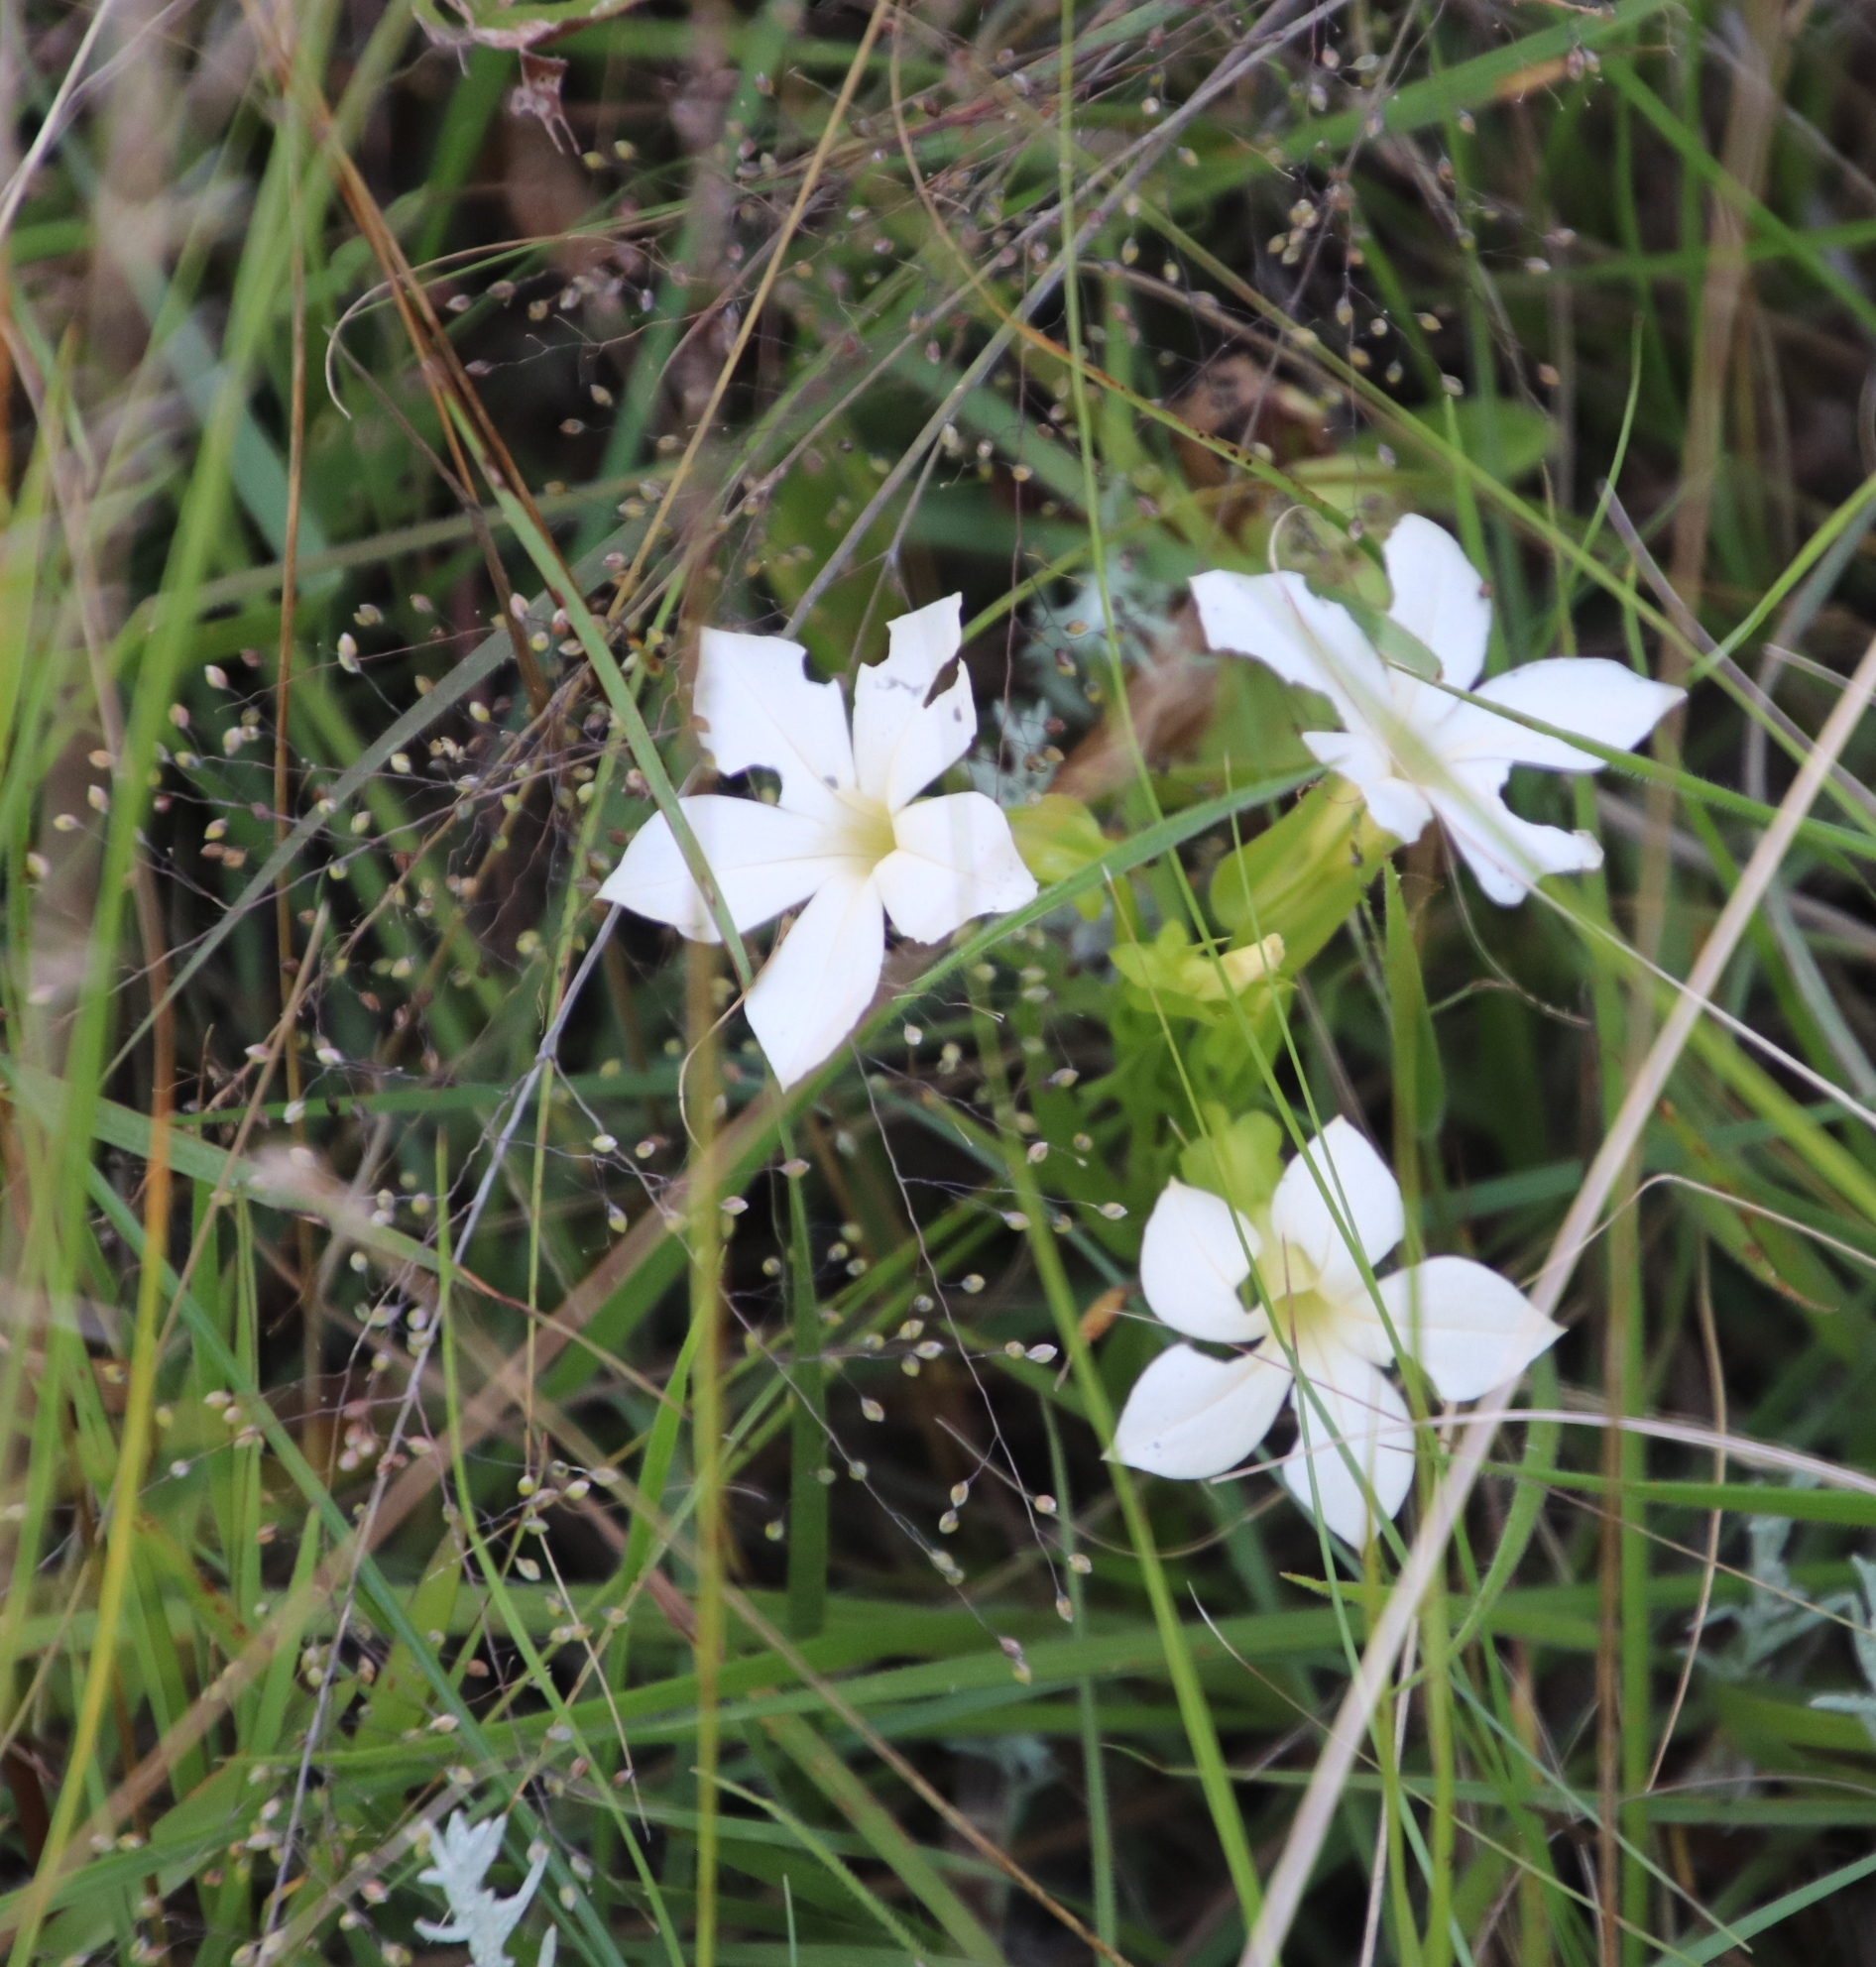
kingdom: Plantae
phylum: Tracheophyta
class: Magnoliopsida
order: Gentianales
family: Gentianaceae
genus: Exochaenium
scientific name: Exochaenium grande
